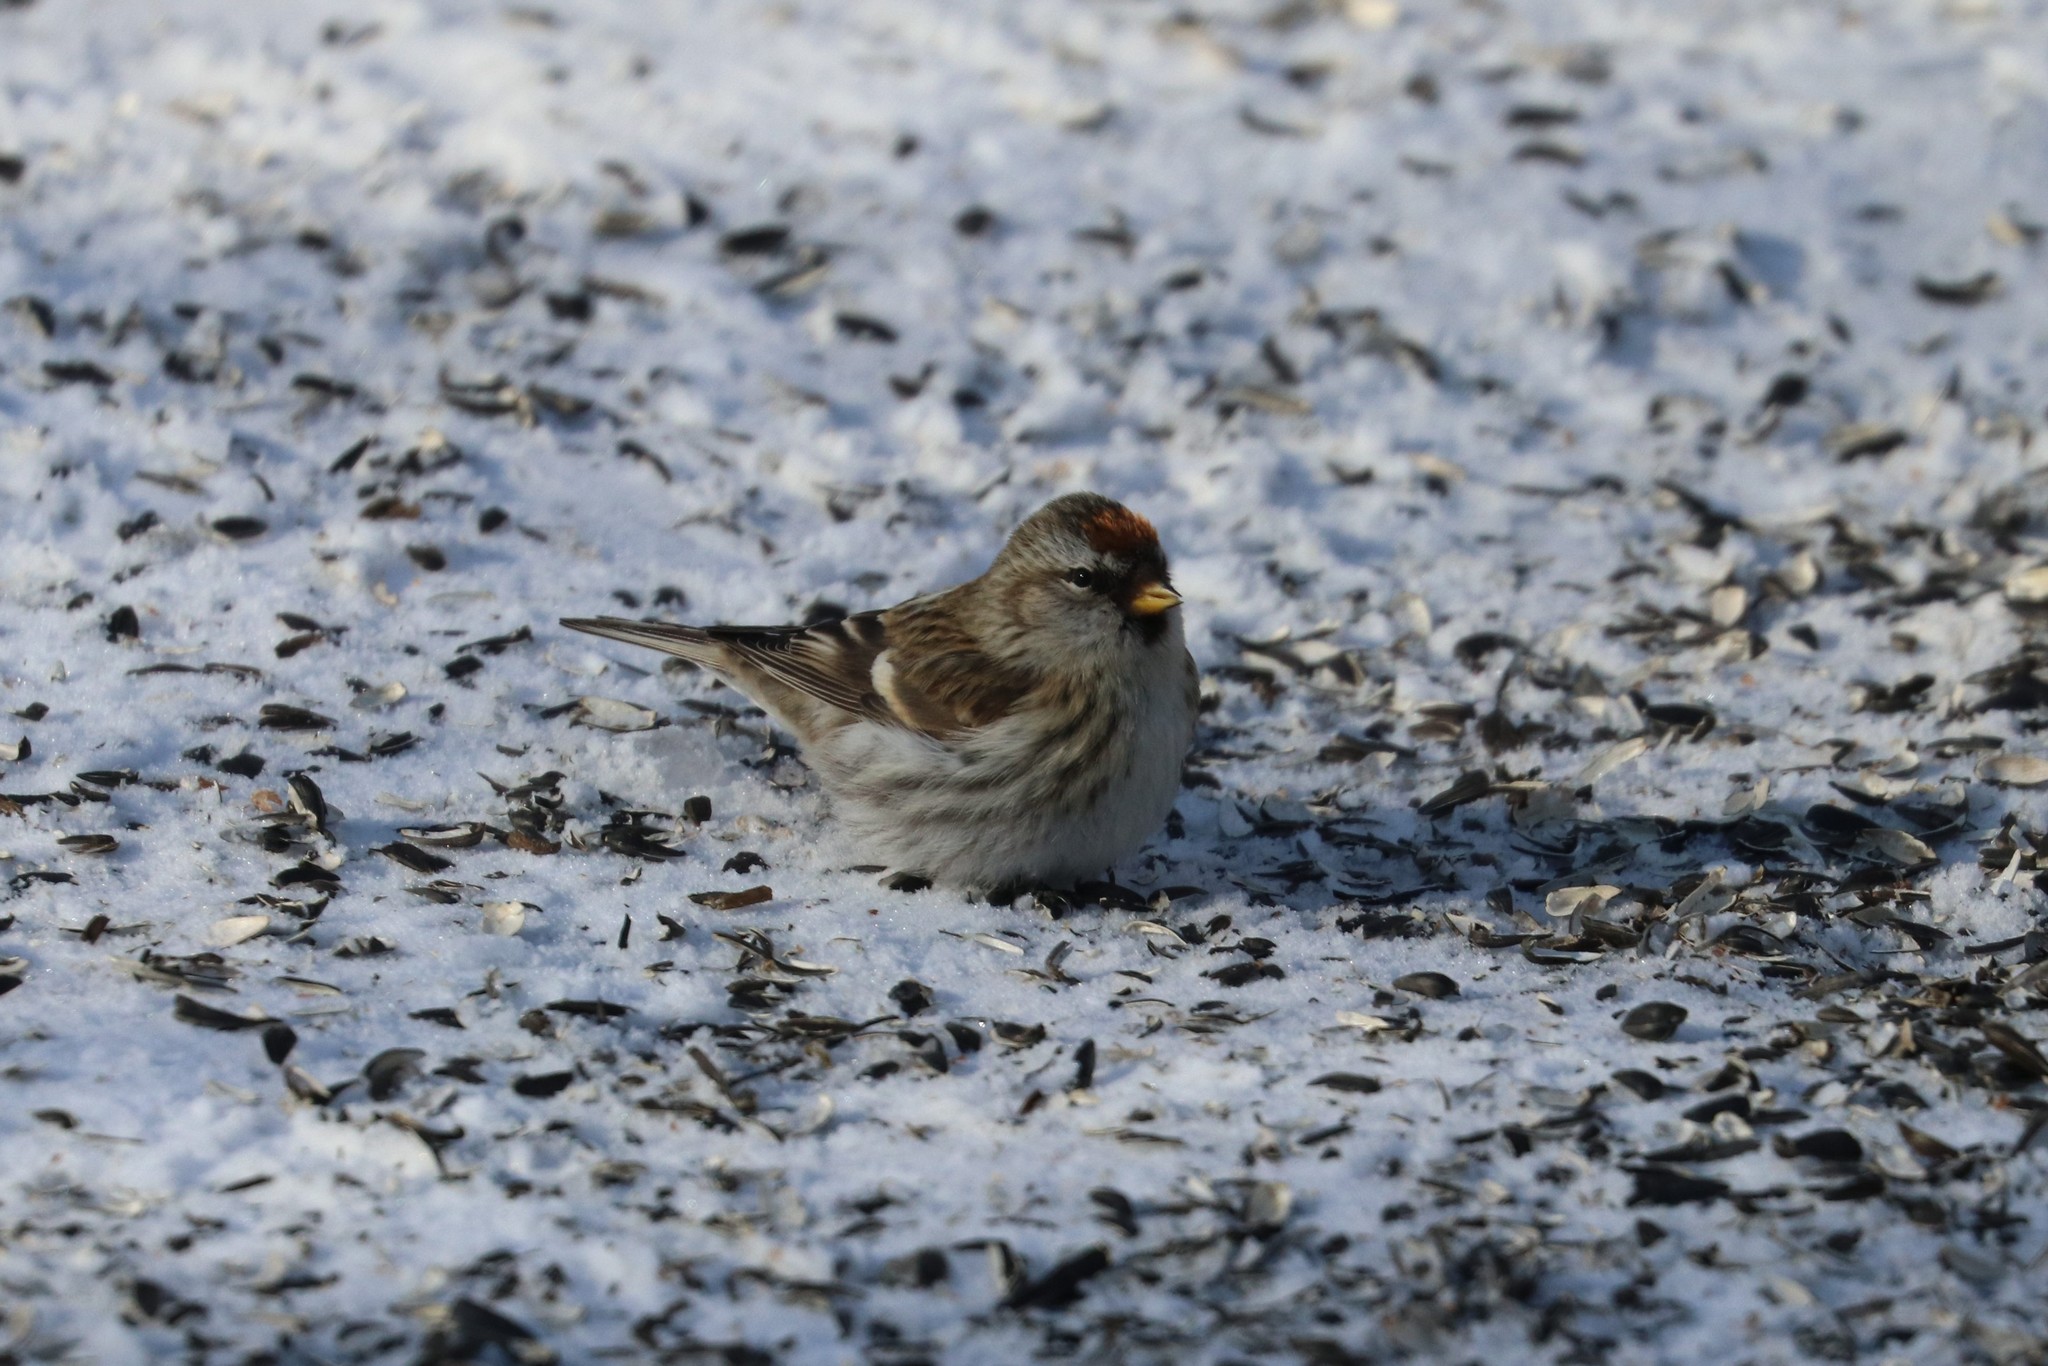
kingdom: Animalia
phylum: Chordata
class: Aves
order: Passeriformes
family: Fringillidae
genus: Acanthis
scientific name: Acanthis flammea
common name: Common redpoll
